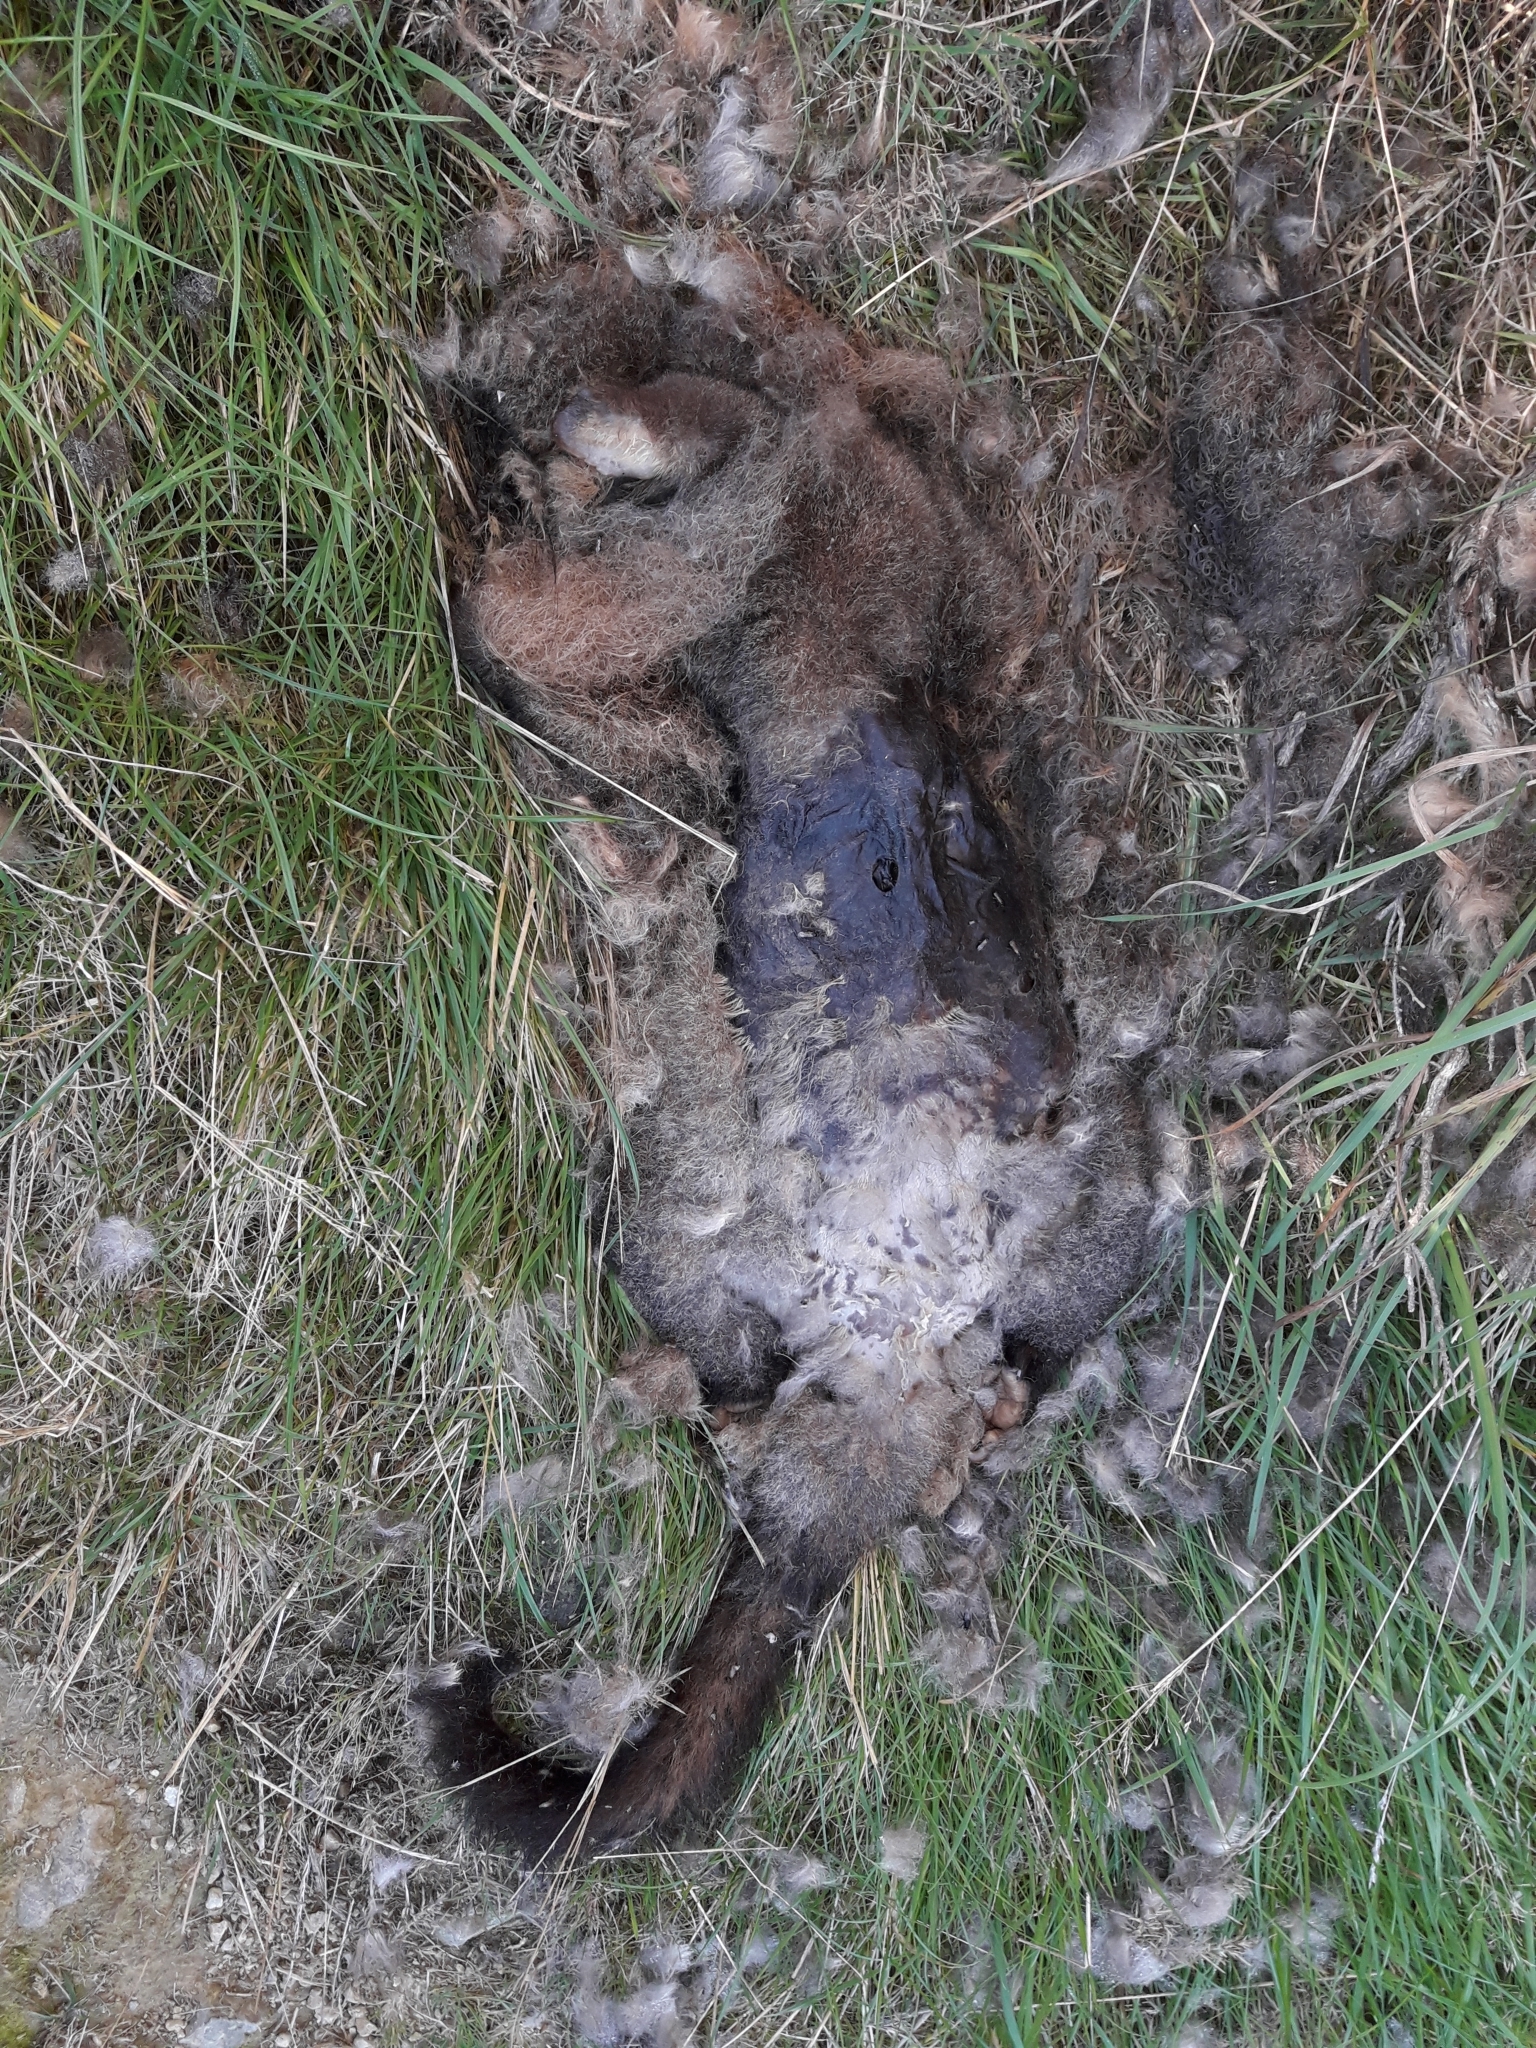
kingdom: Animalia
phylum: Chordata
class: Mammalia
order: Diprotodontia
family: Phalangeridae
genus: Trichosurus
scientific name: Trichosurus vulpecula
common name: Common brushtail
